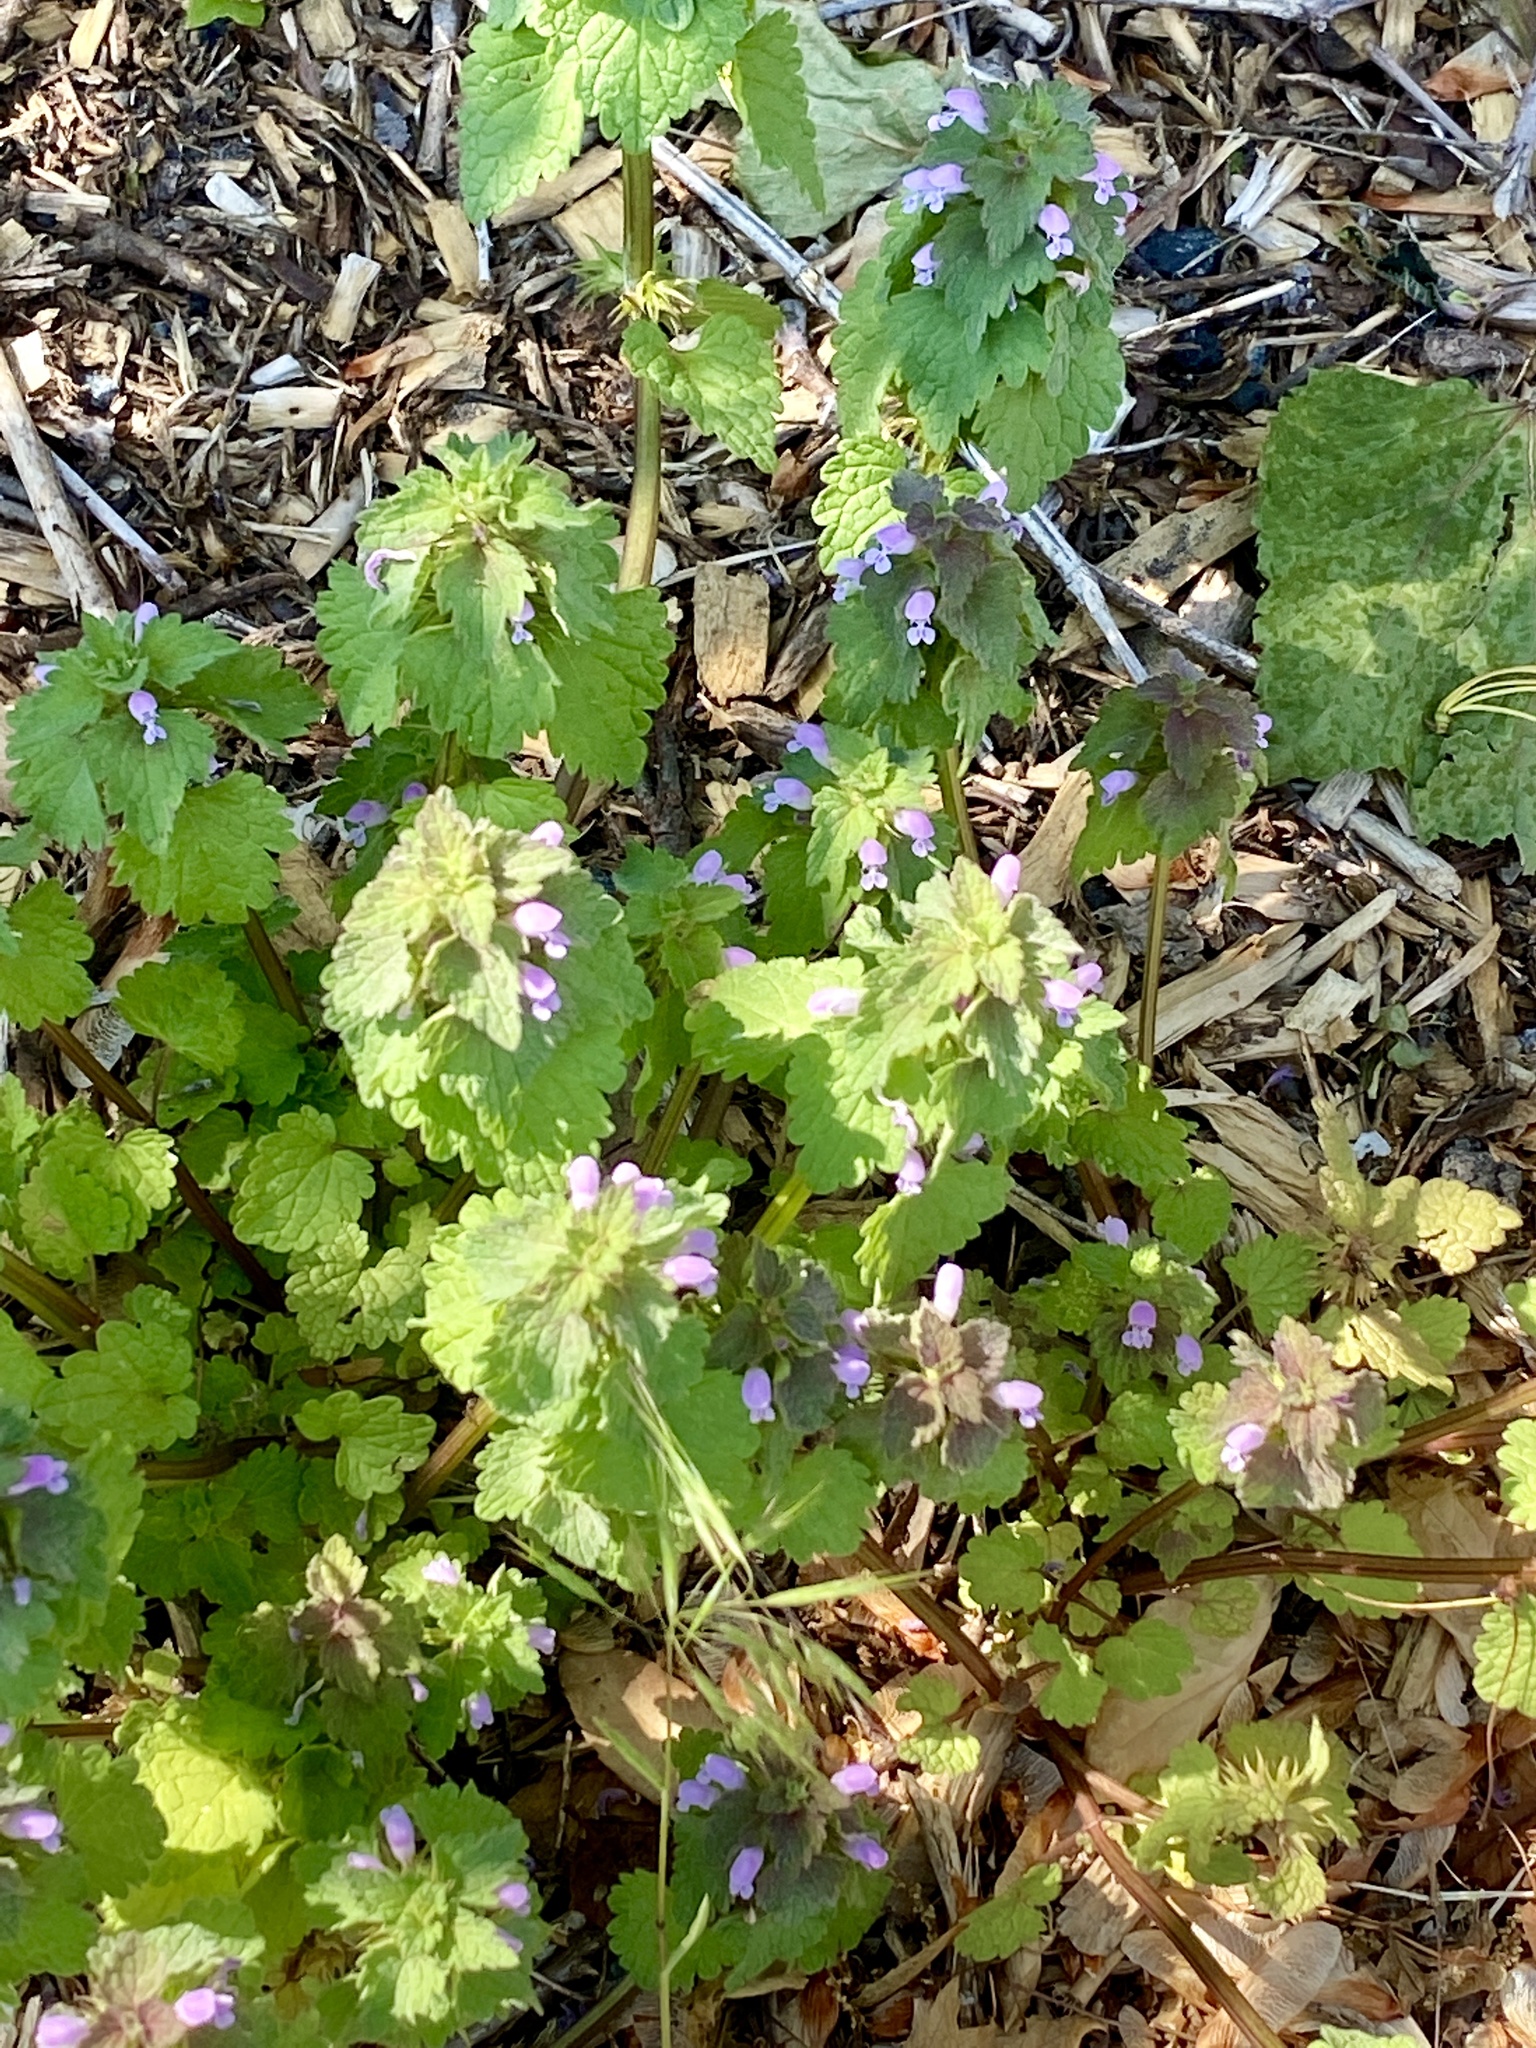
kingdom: Plantae
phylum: Tracheophyta
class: Magnoliopsida
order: Lamiales
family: Lamiaceae
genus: Lamium
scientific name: Lamium purpureum
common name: Red dead-nettle
